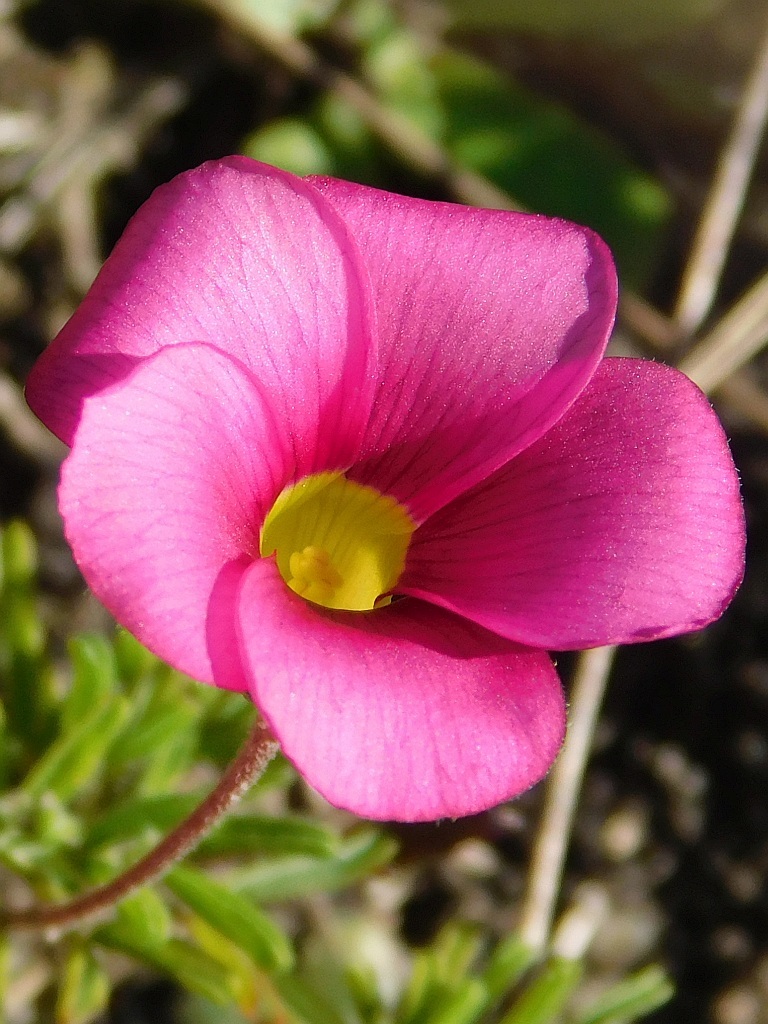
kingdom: Plantae
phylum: Tracheophyta
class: Magnoliopsida
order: Oxalidales
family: Oxalidaceae
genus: Oxalis
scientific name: Oxalis glabra
